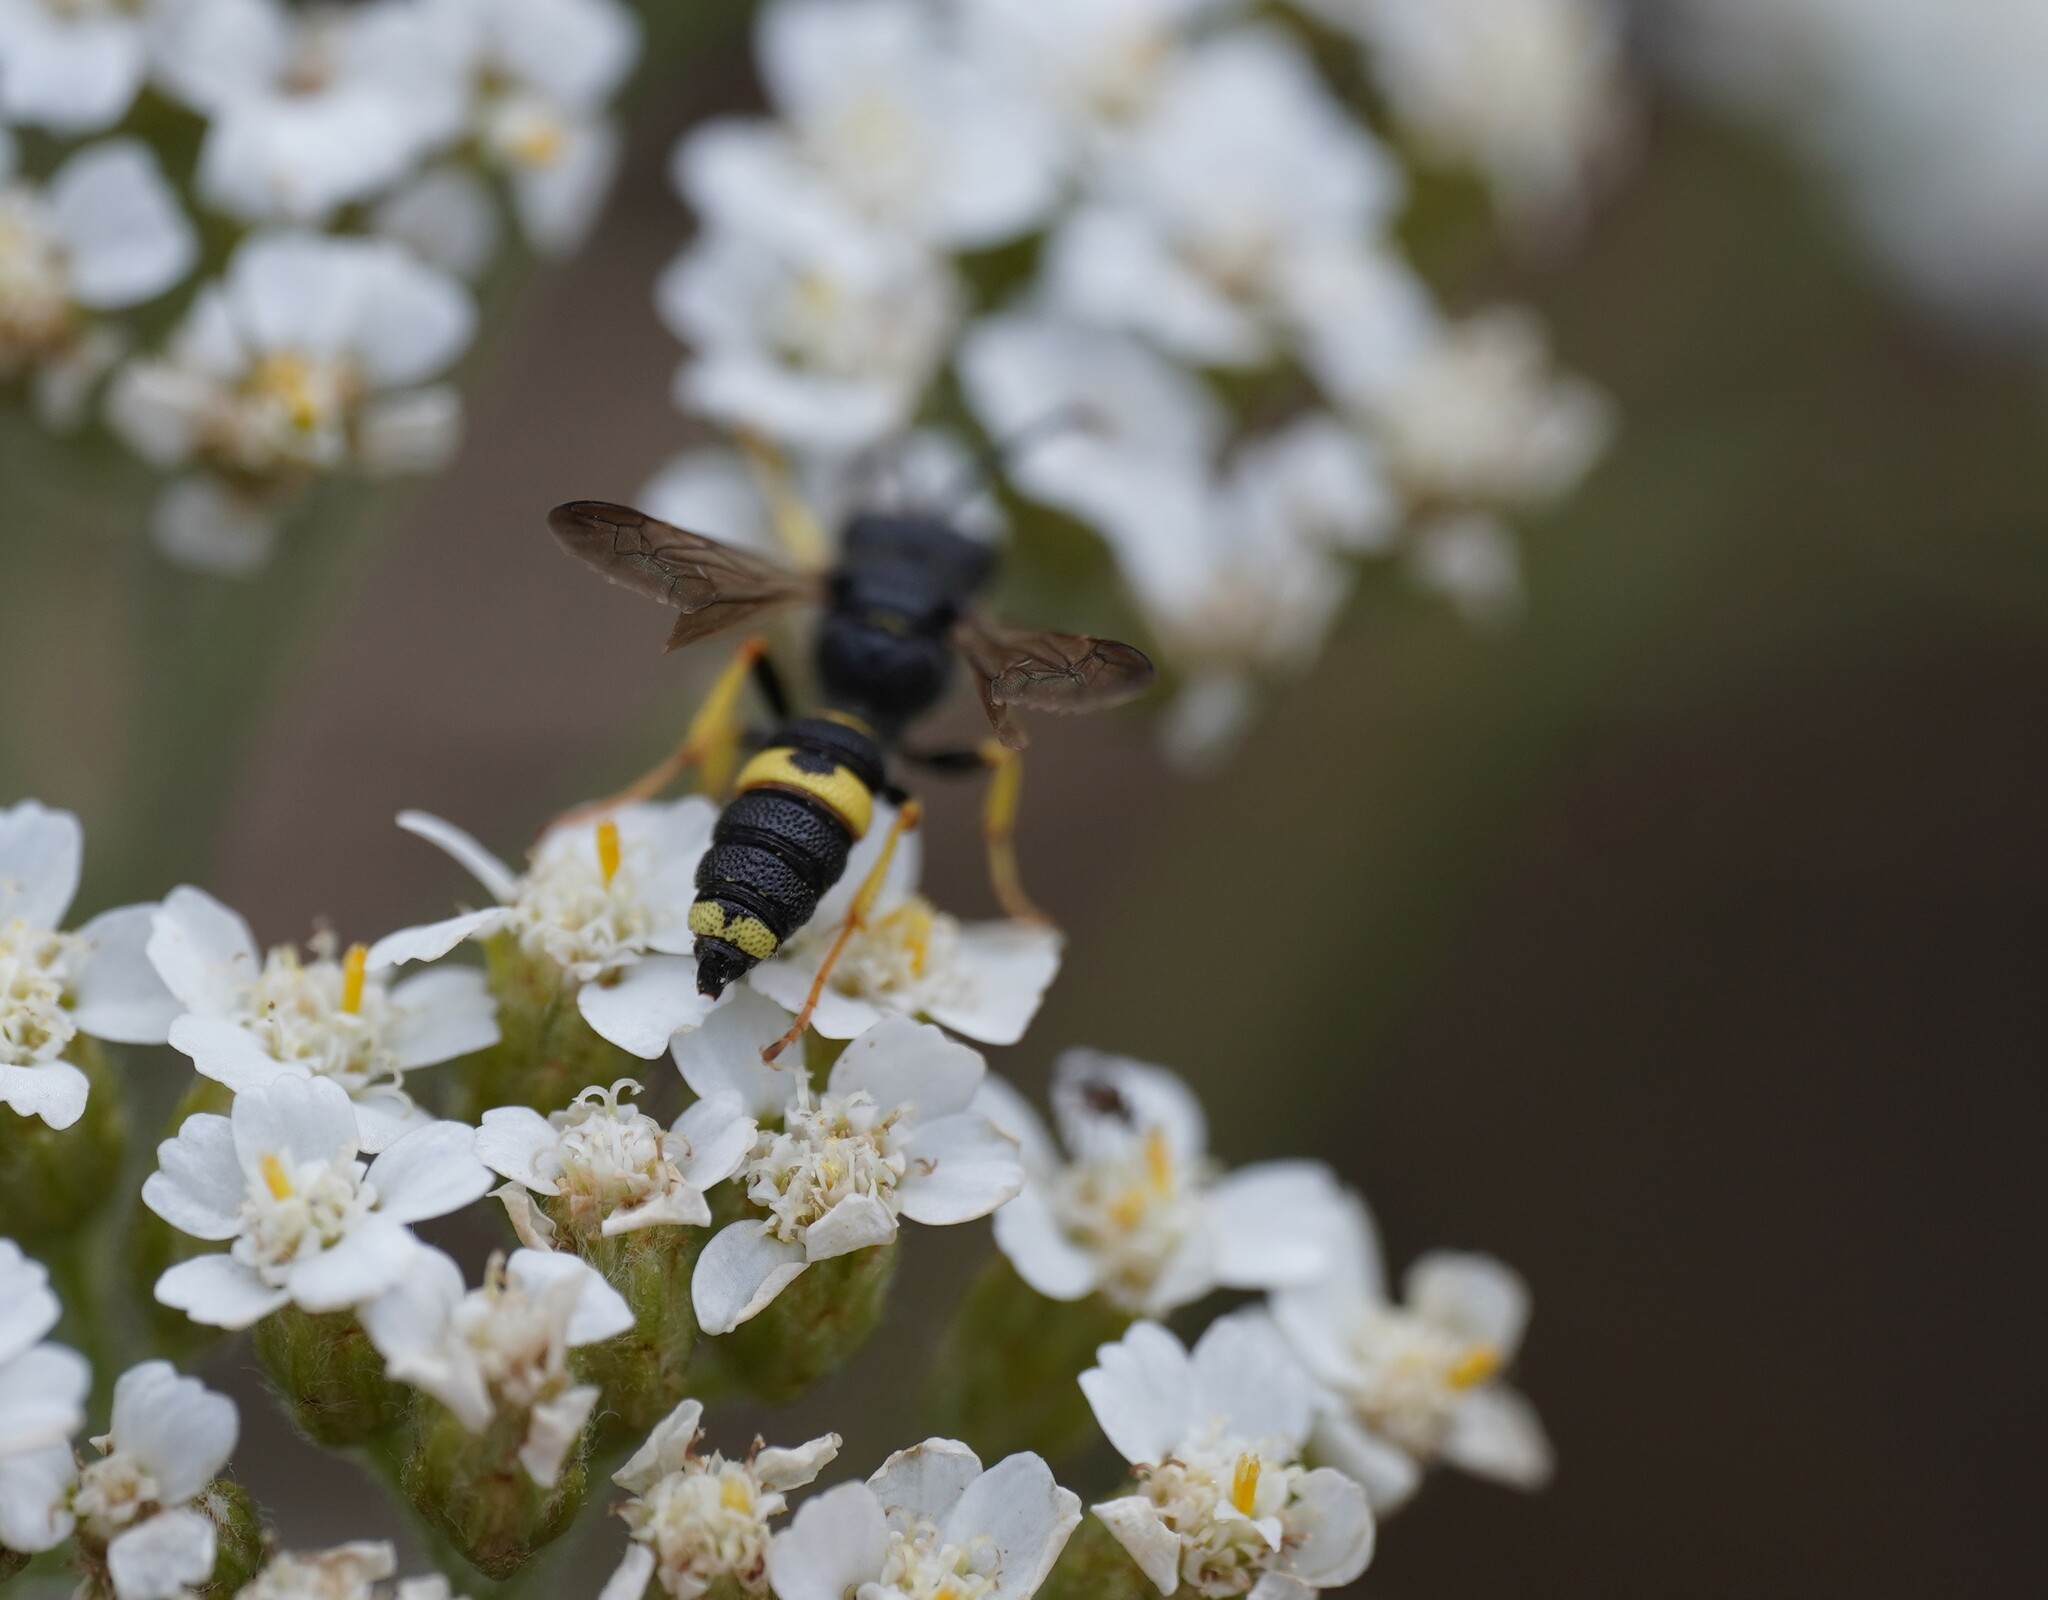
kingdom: Animalia
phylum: Arthropoda
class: Insecta
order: Hymenoptera
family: Crabronidae
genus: Cerceris
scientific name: Cerceris rybyensis
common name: Ornate tailed digger wasp
